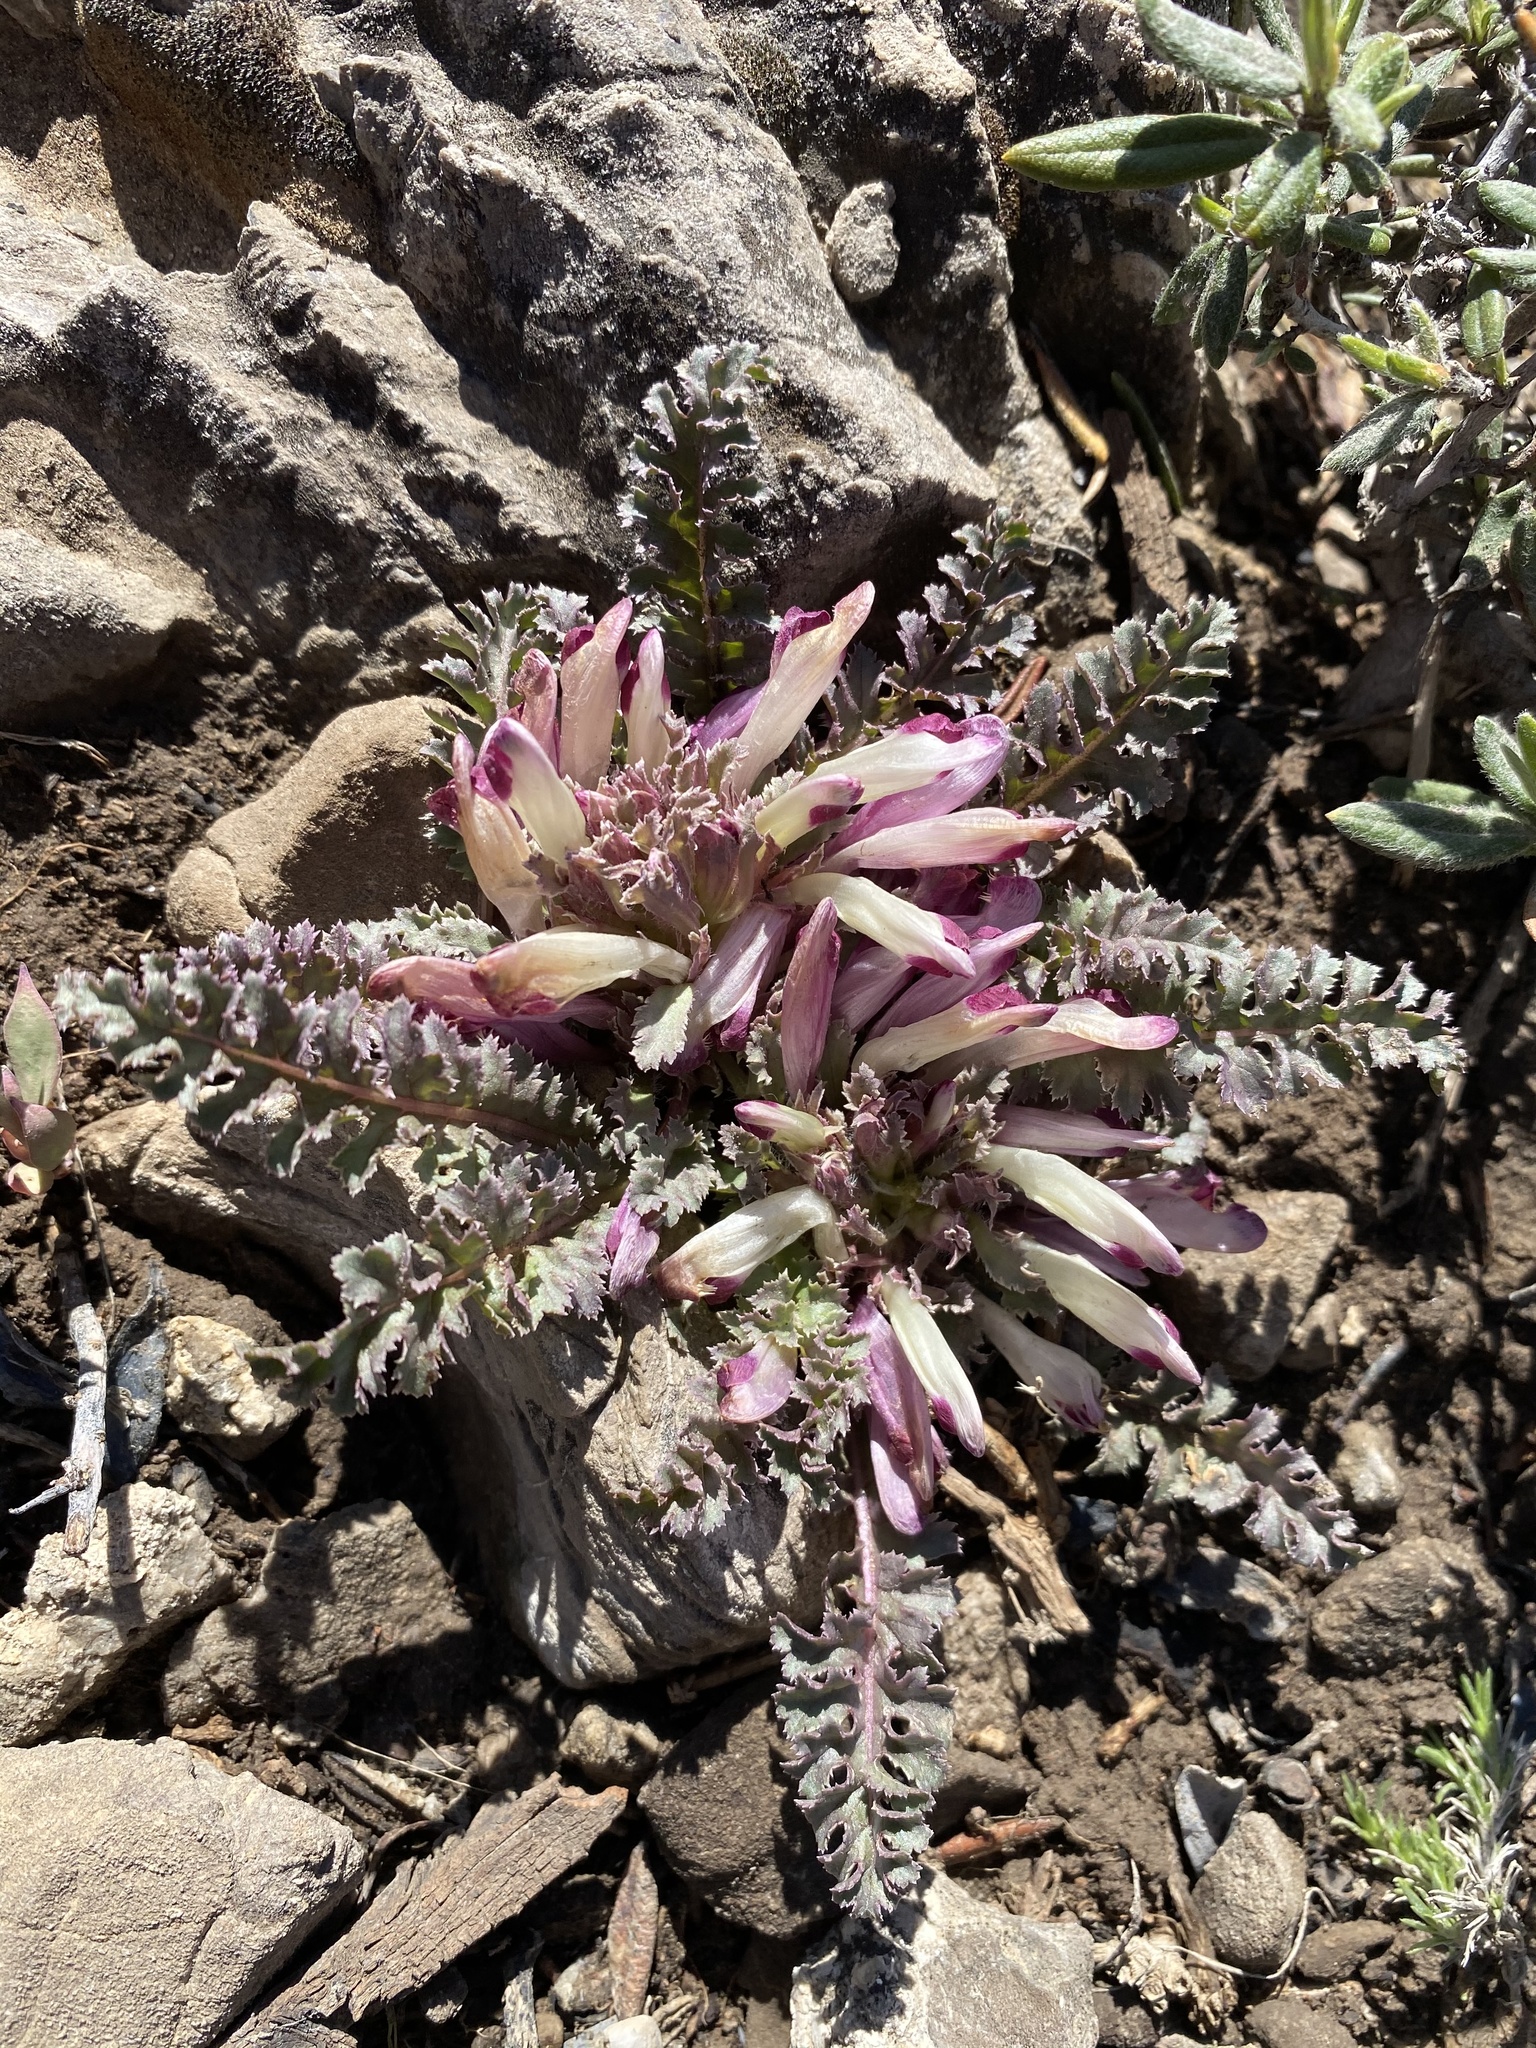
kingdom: Plantae
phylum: Tracheophyta
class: Magnoliopsida
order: Lamiales
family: Orobanchaceae
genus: Pedicularis
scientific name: Pedicularis centranthera
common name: Dwarf lousewort
